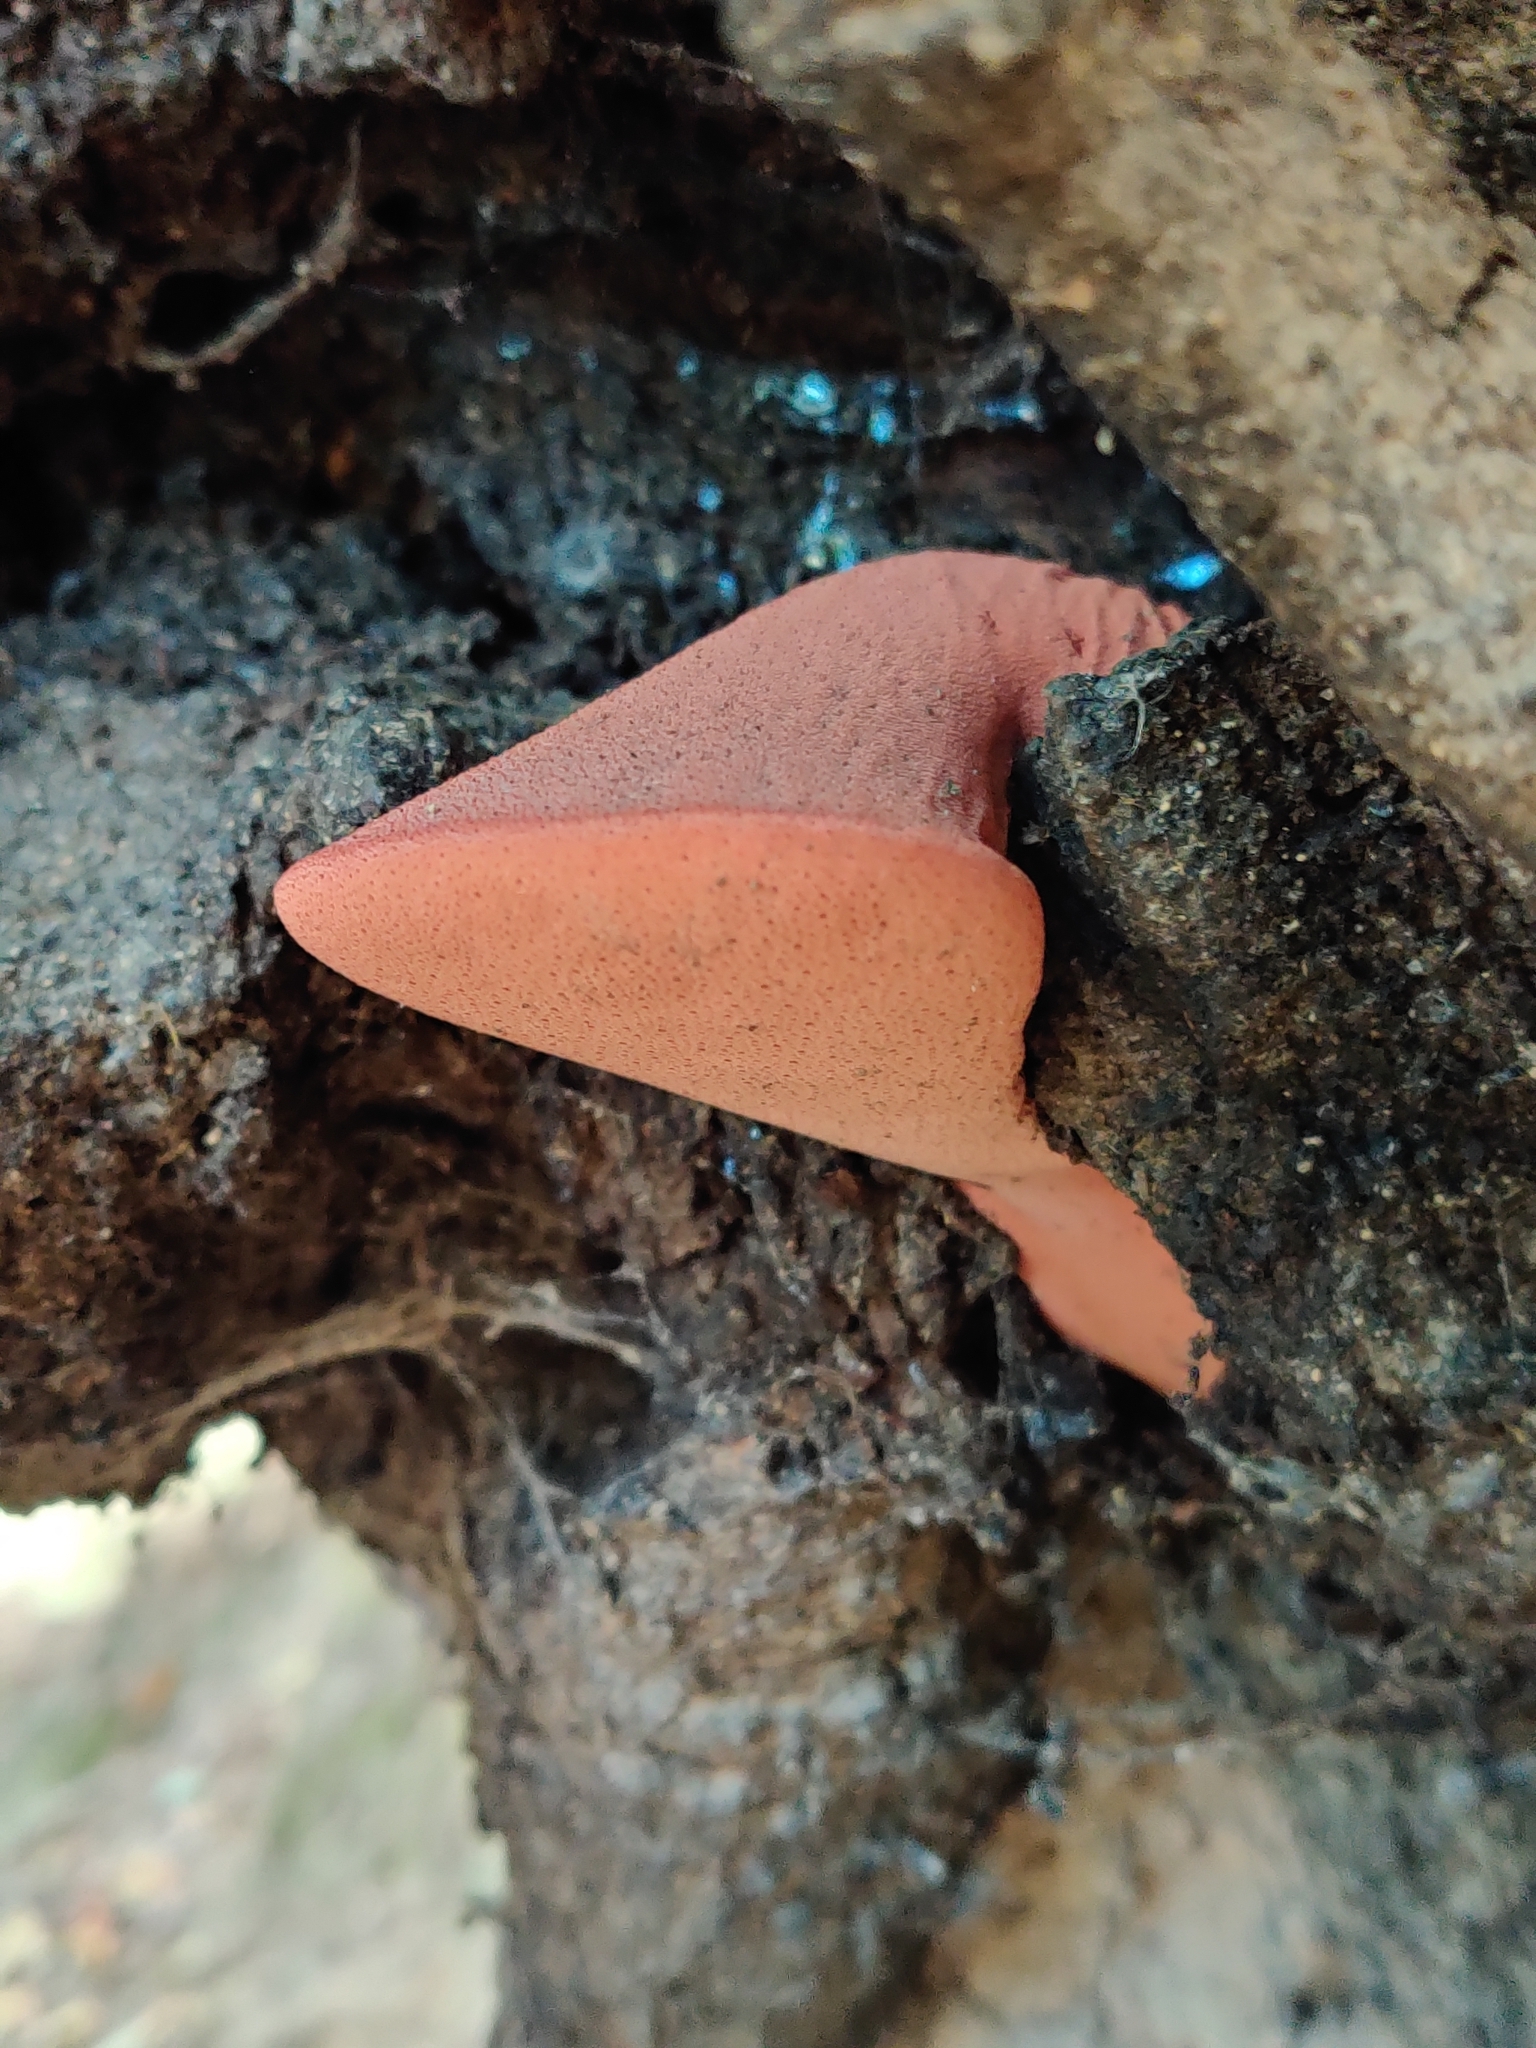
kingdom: Fungi
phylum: Basidiomycota
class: Agaricomycetes
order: Agaricales
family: Fistulinaceae
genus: Fistulina
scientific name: Fistulina hepatica
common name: Beef-steak fungus
